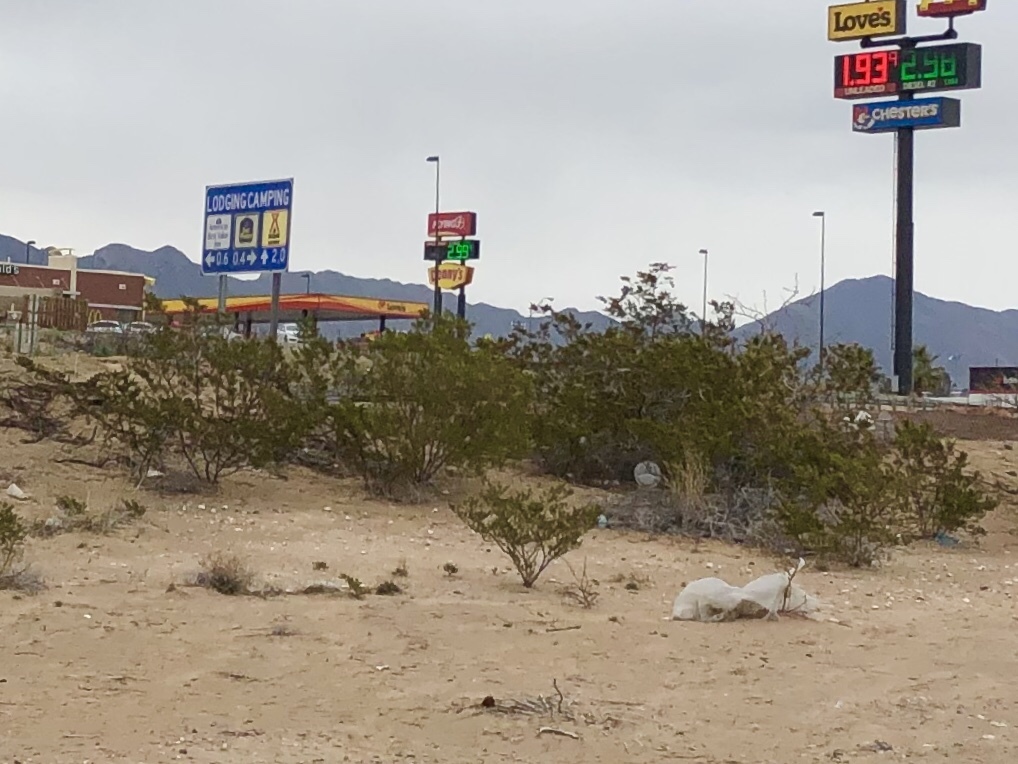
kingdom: Plantae
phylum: Tracheophyta
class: Magnoliopsida
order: Zygophyllales
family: Zygophyllaceae
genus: Larrea
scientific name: Larrea tridentata
